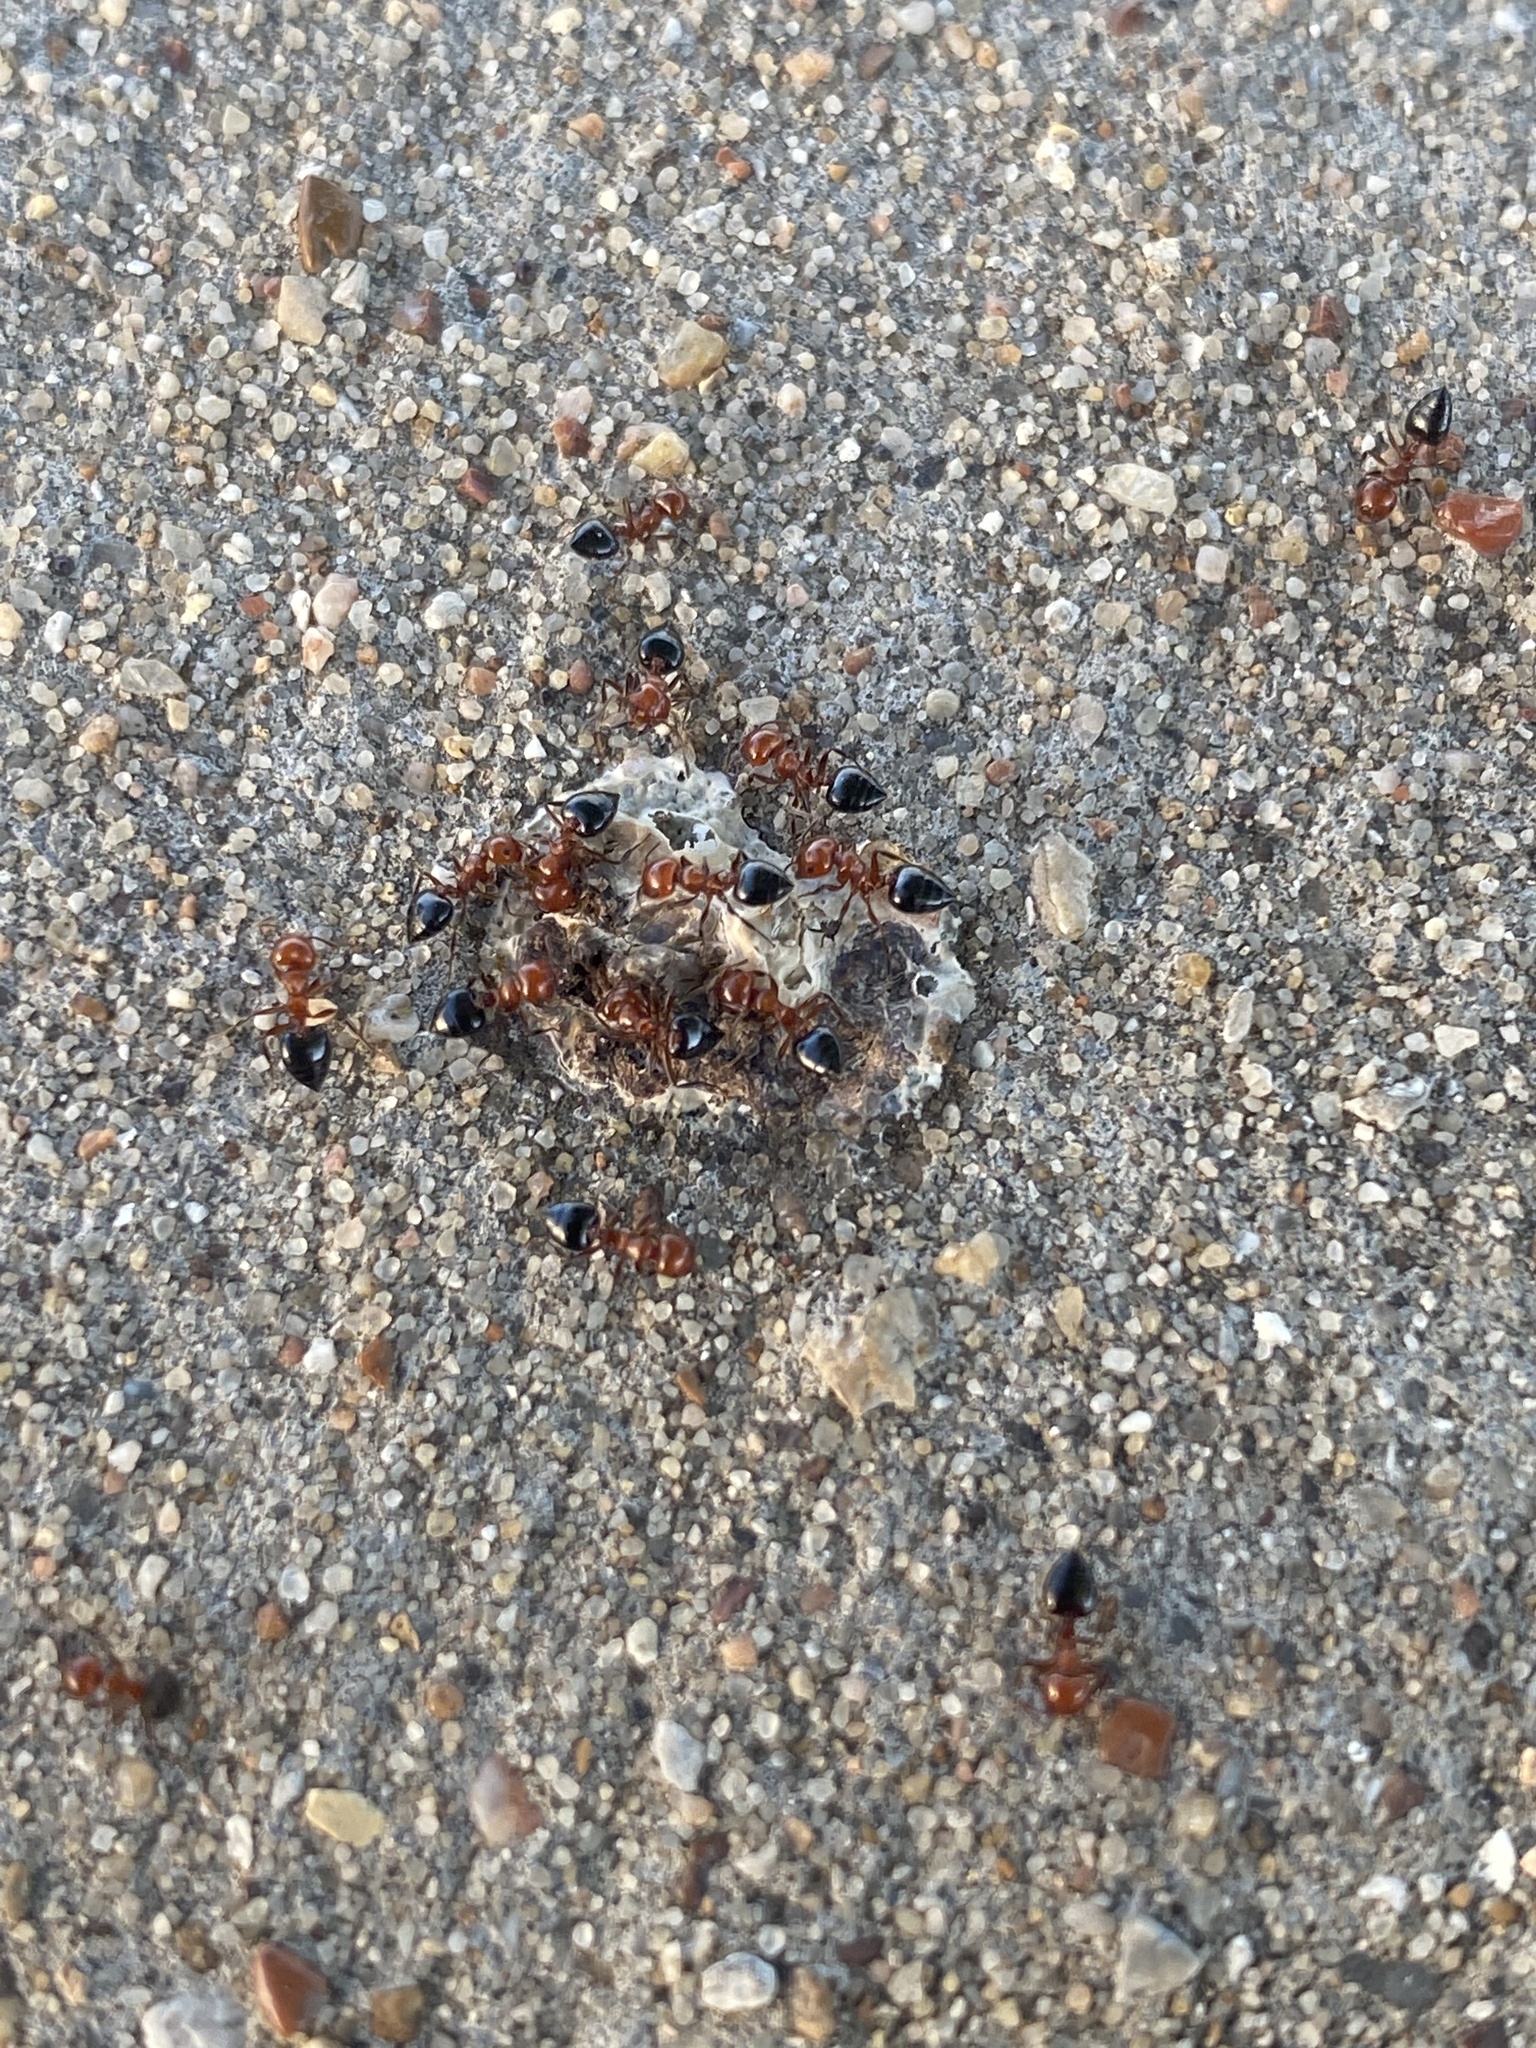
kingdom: Animalia
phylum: Arthropoda
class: Insecta
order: Hymenoptera
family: Formicidae
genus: Crematogaster
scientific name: Crematogaster laeviuscula
